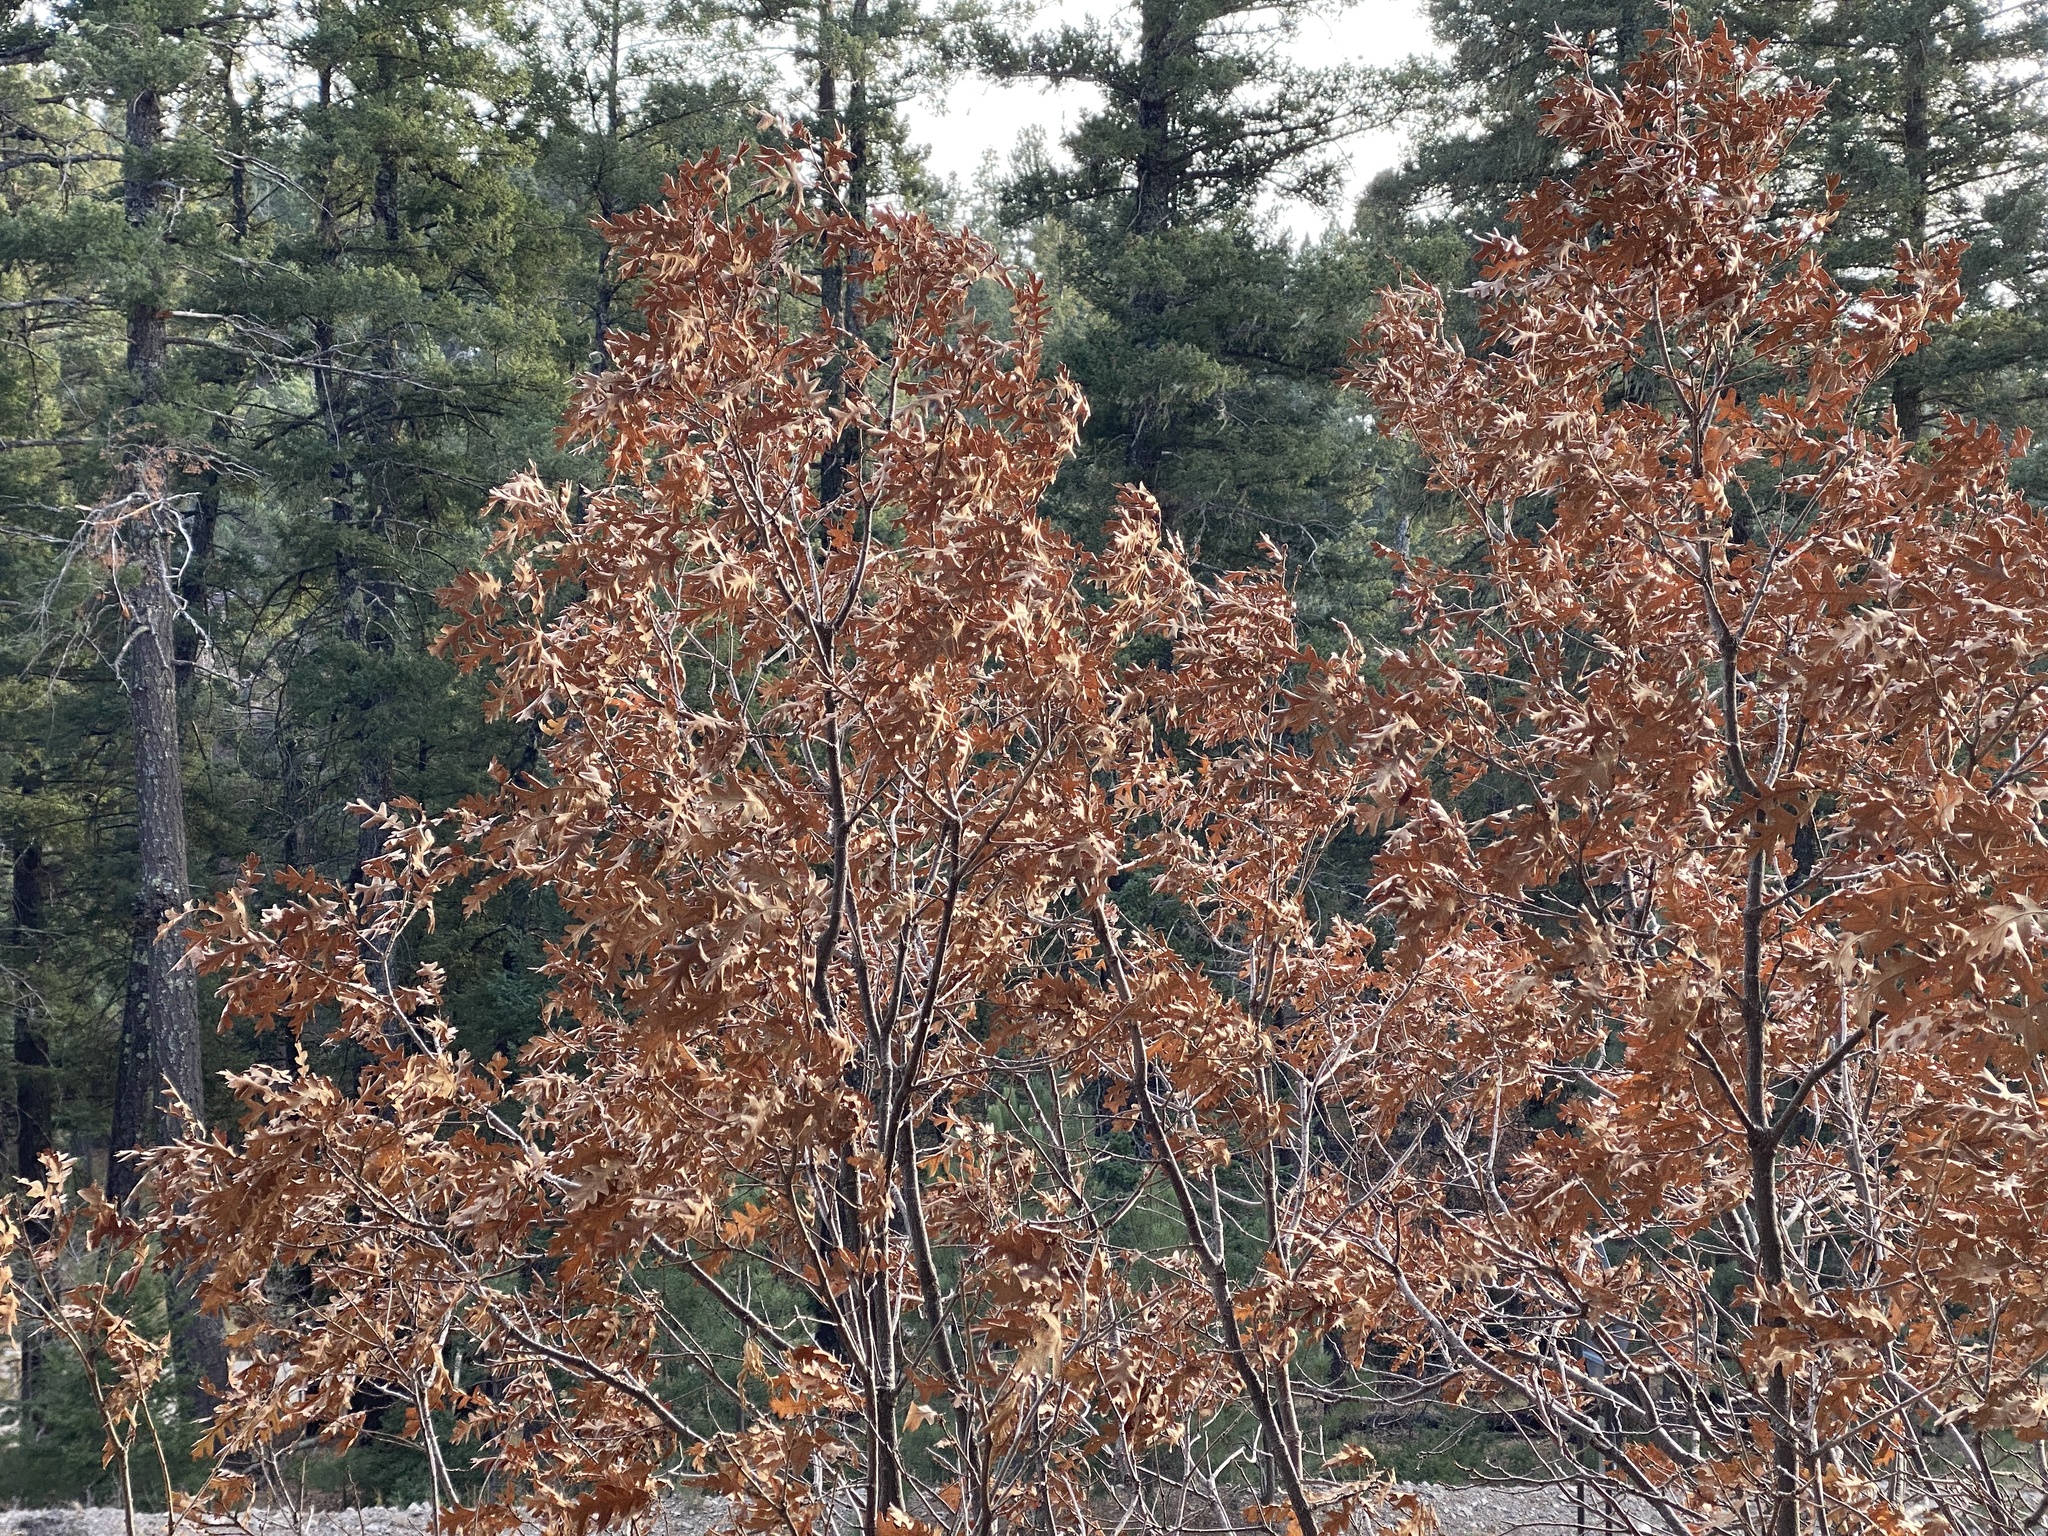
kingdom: Plantae
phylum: Tracheophyta
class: Magnoliopsida
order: Fagales
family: Fagaceae
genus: Quercus
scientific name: Quercus gambelii
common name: Gambel oak
